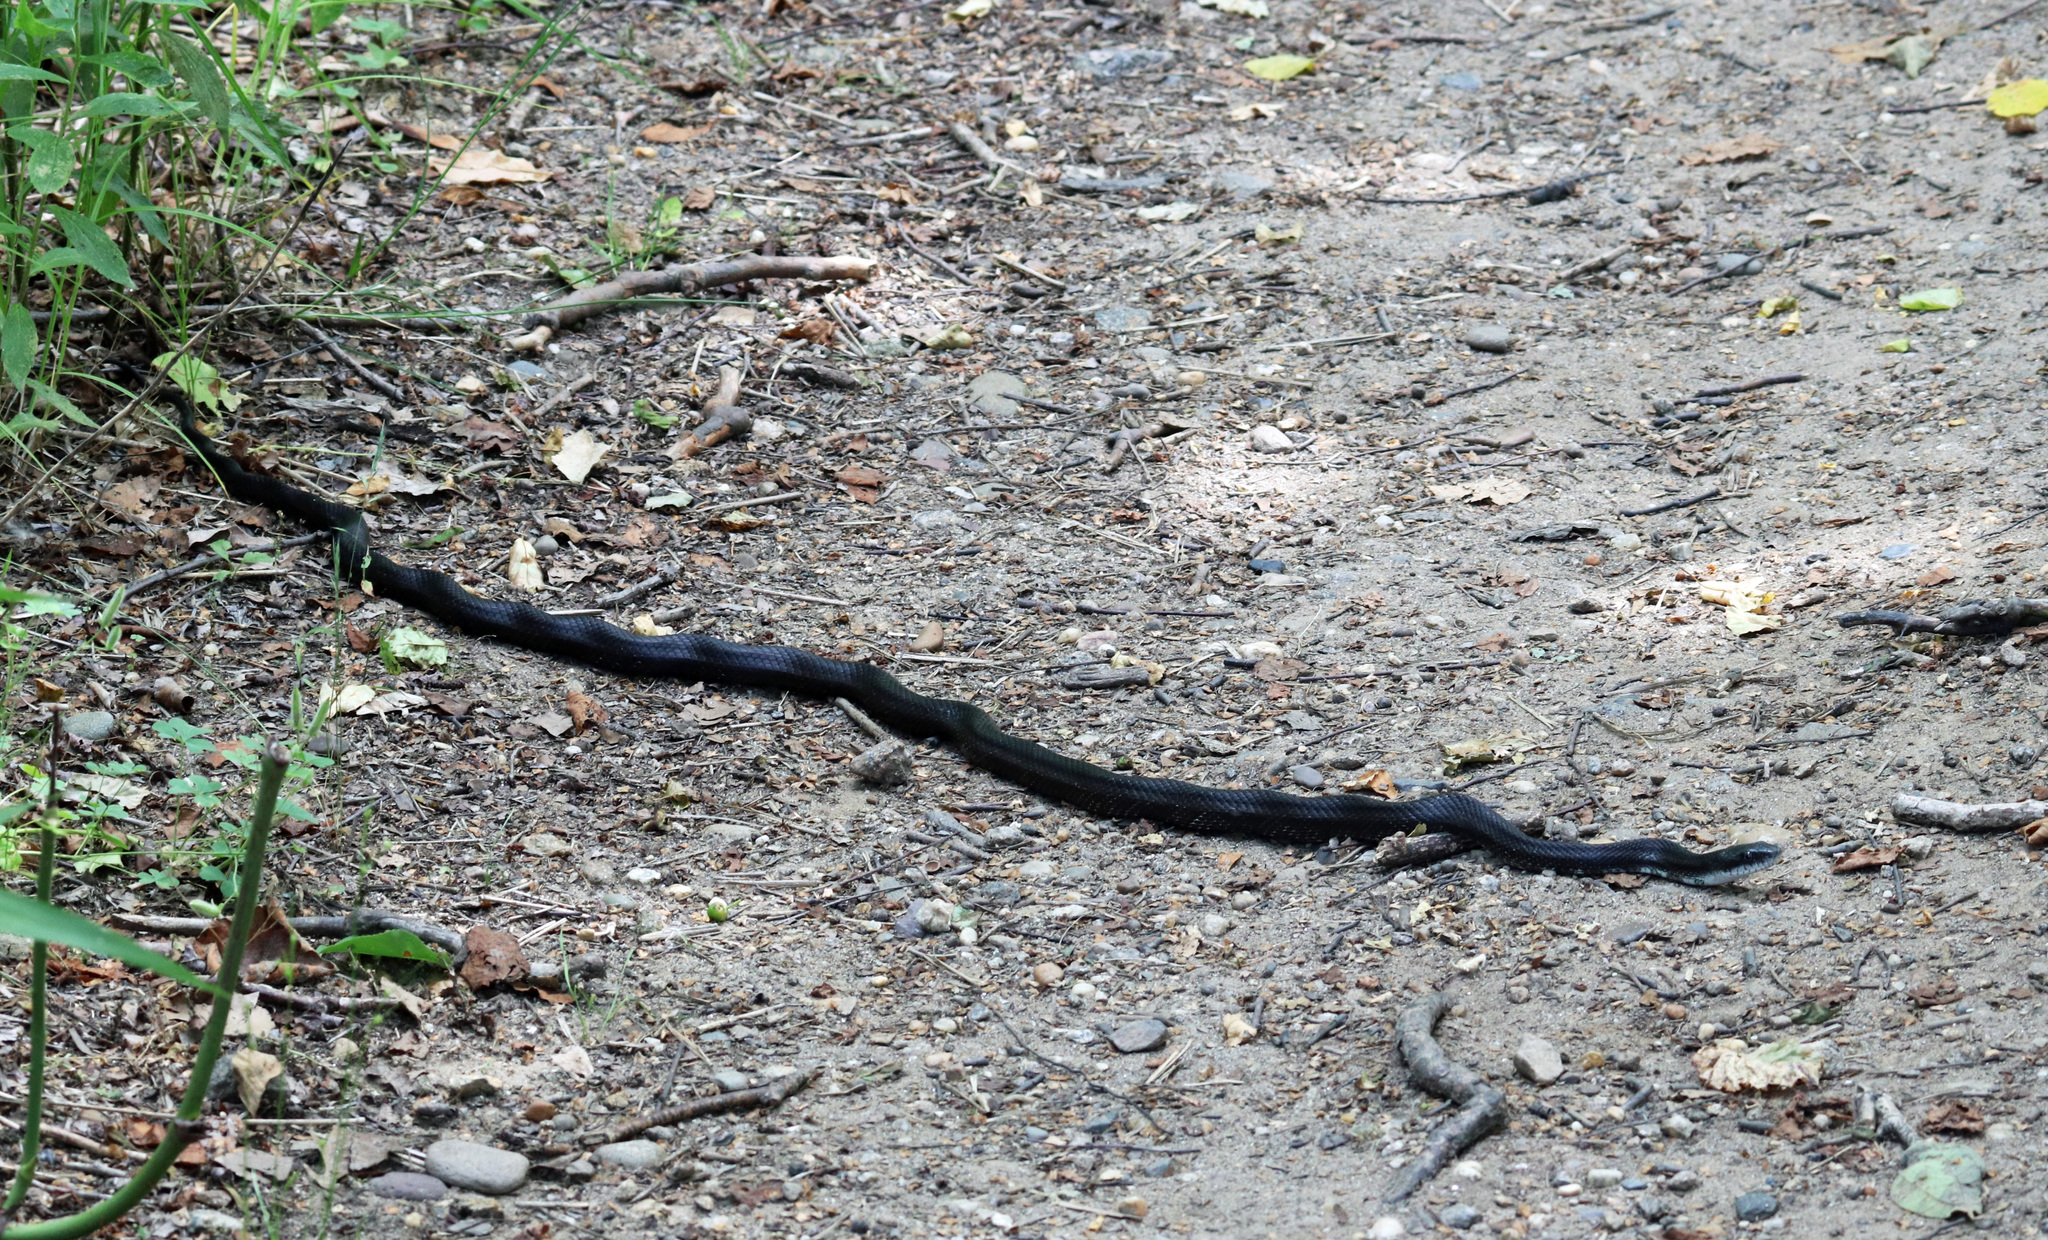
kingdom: Animalia
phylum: Chordata
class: Squamata
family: Colubridae
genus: Pantherophis
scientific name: Pantherophis alleghaniensis
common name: Eastern rat snake
